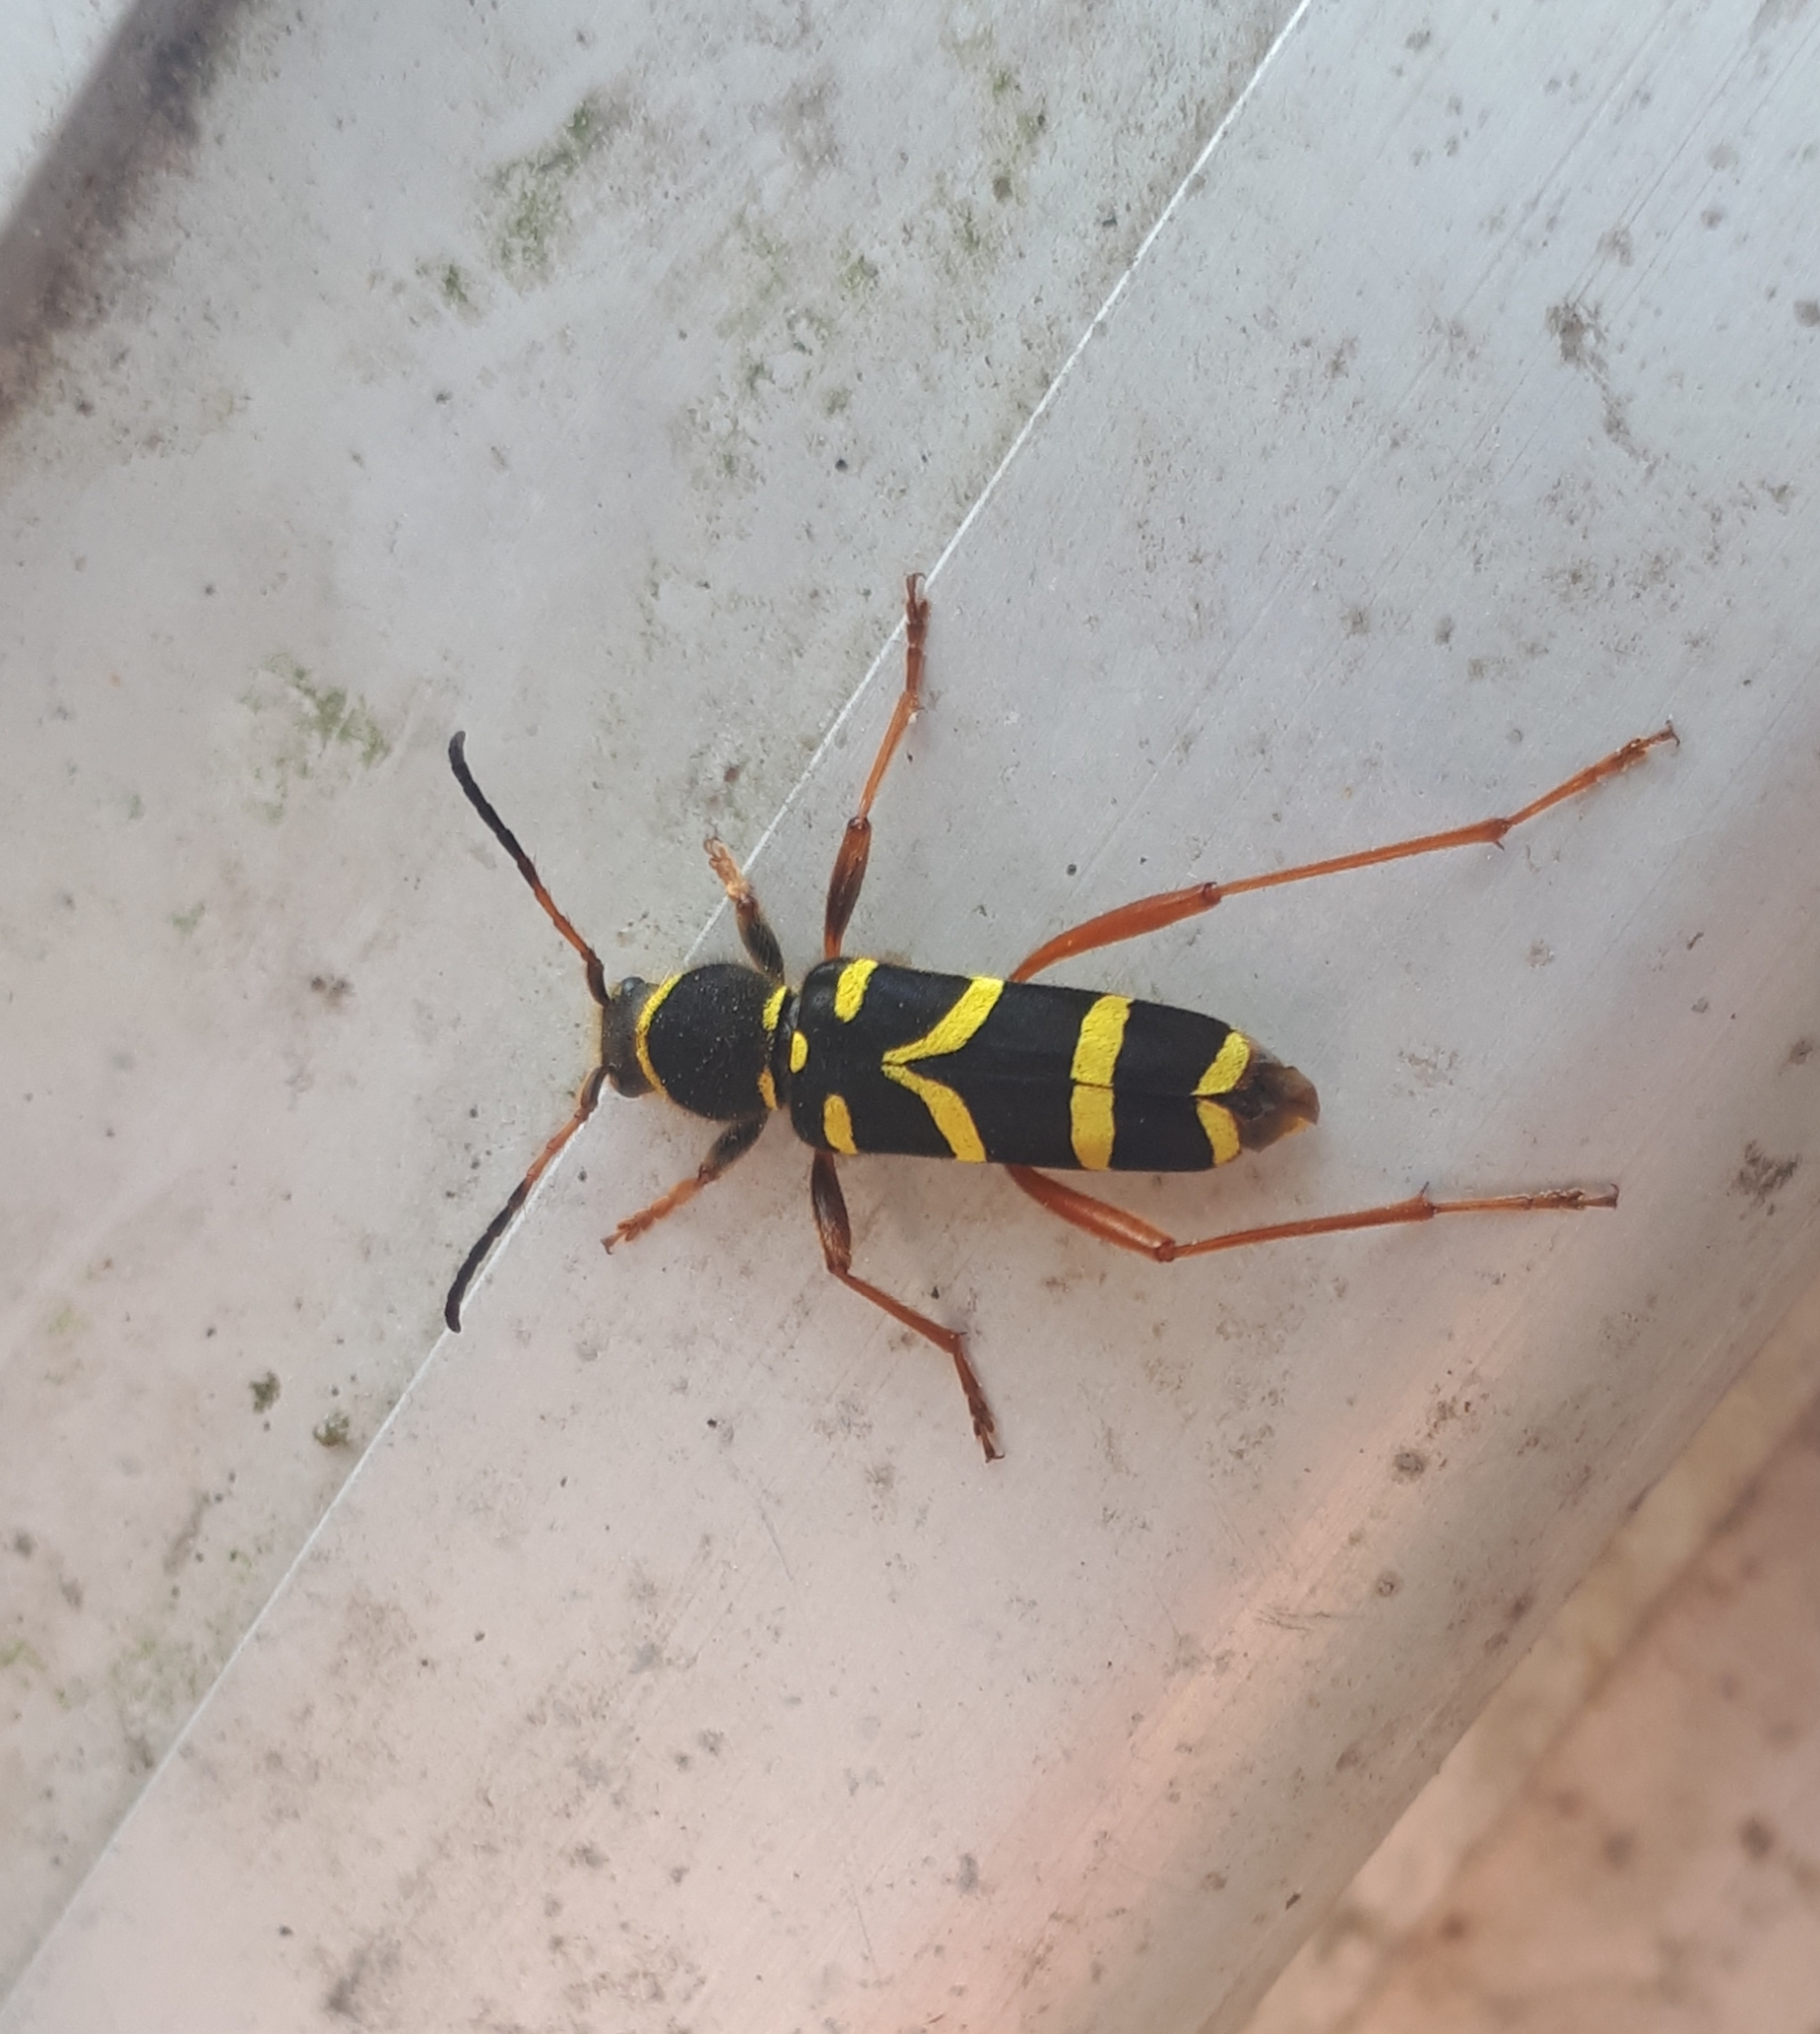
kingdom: Animalia
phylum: Arthropoda
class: Insecta
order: Coleoptera
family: Cerambycidae
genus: Clytus
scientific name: Clytus arietis
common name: Wasp beetle
